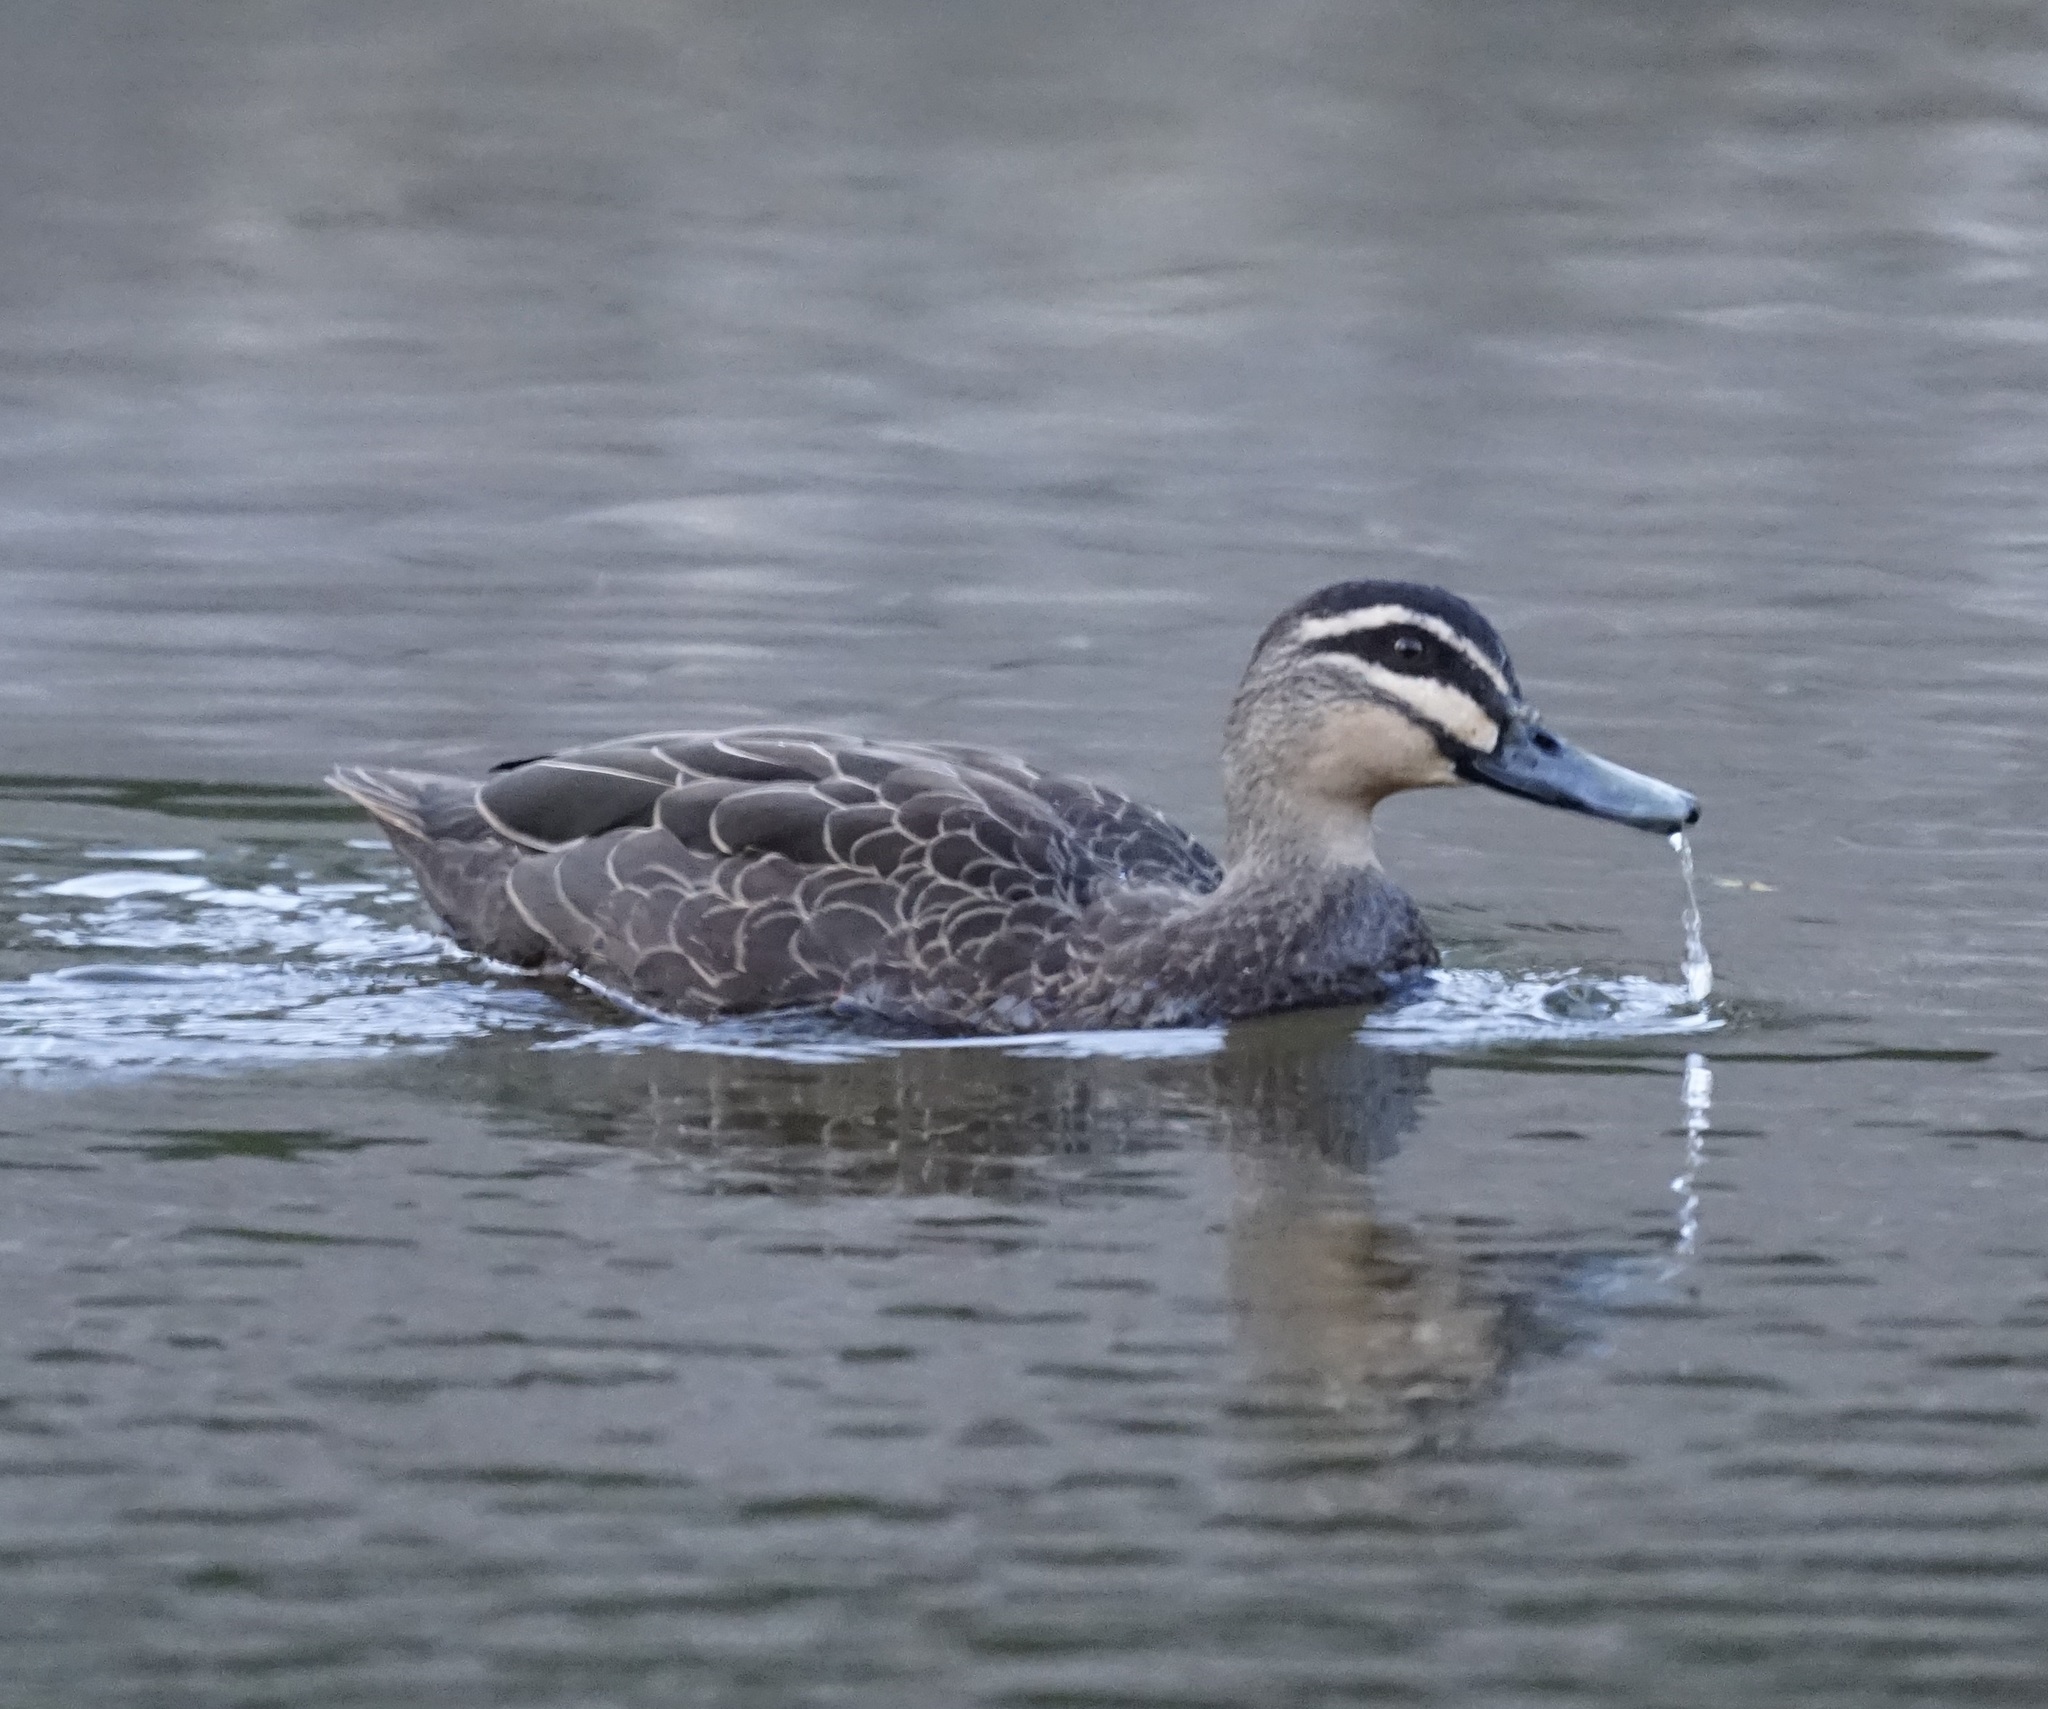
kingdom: Animalia
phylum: Chordata
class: Aves
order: Anseriformes
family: Anatidae
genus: Anas
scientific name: Anas superciliosa
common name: Pacific black duck
